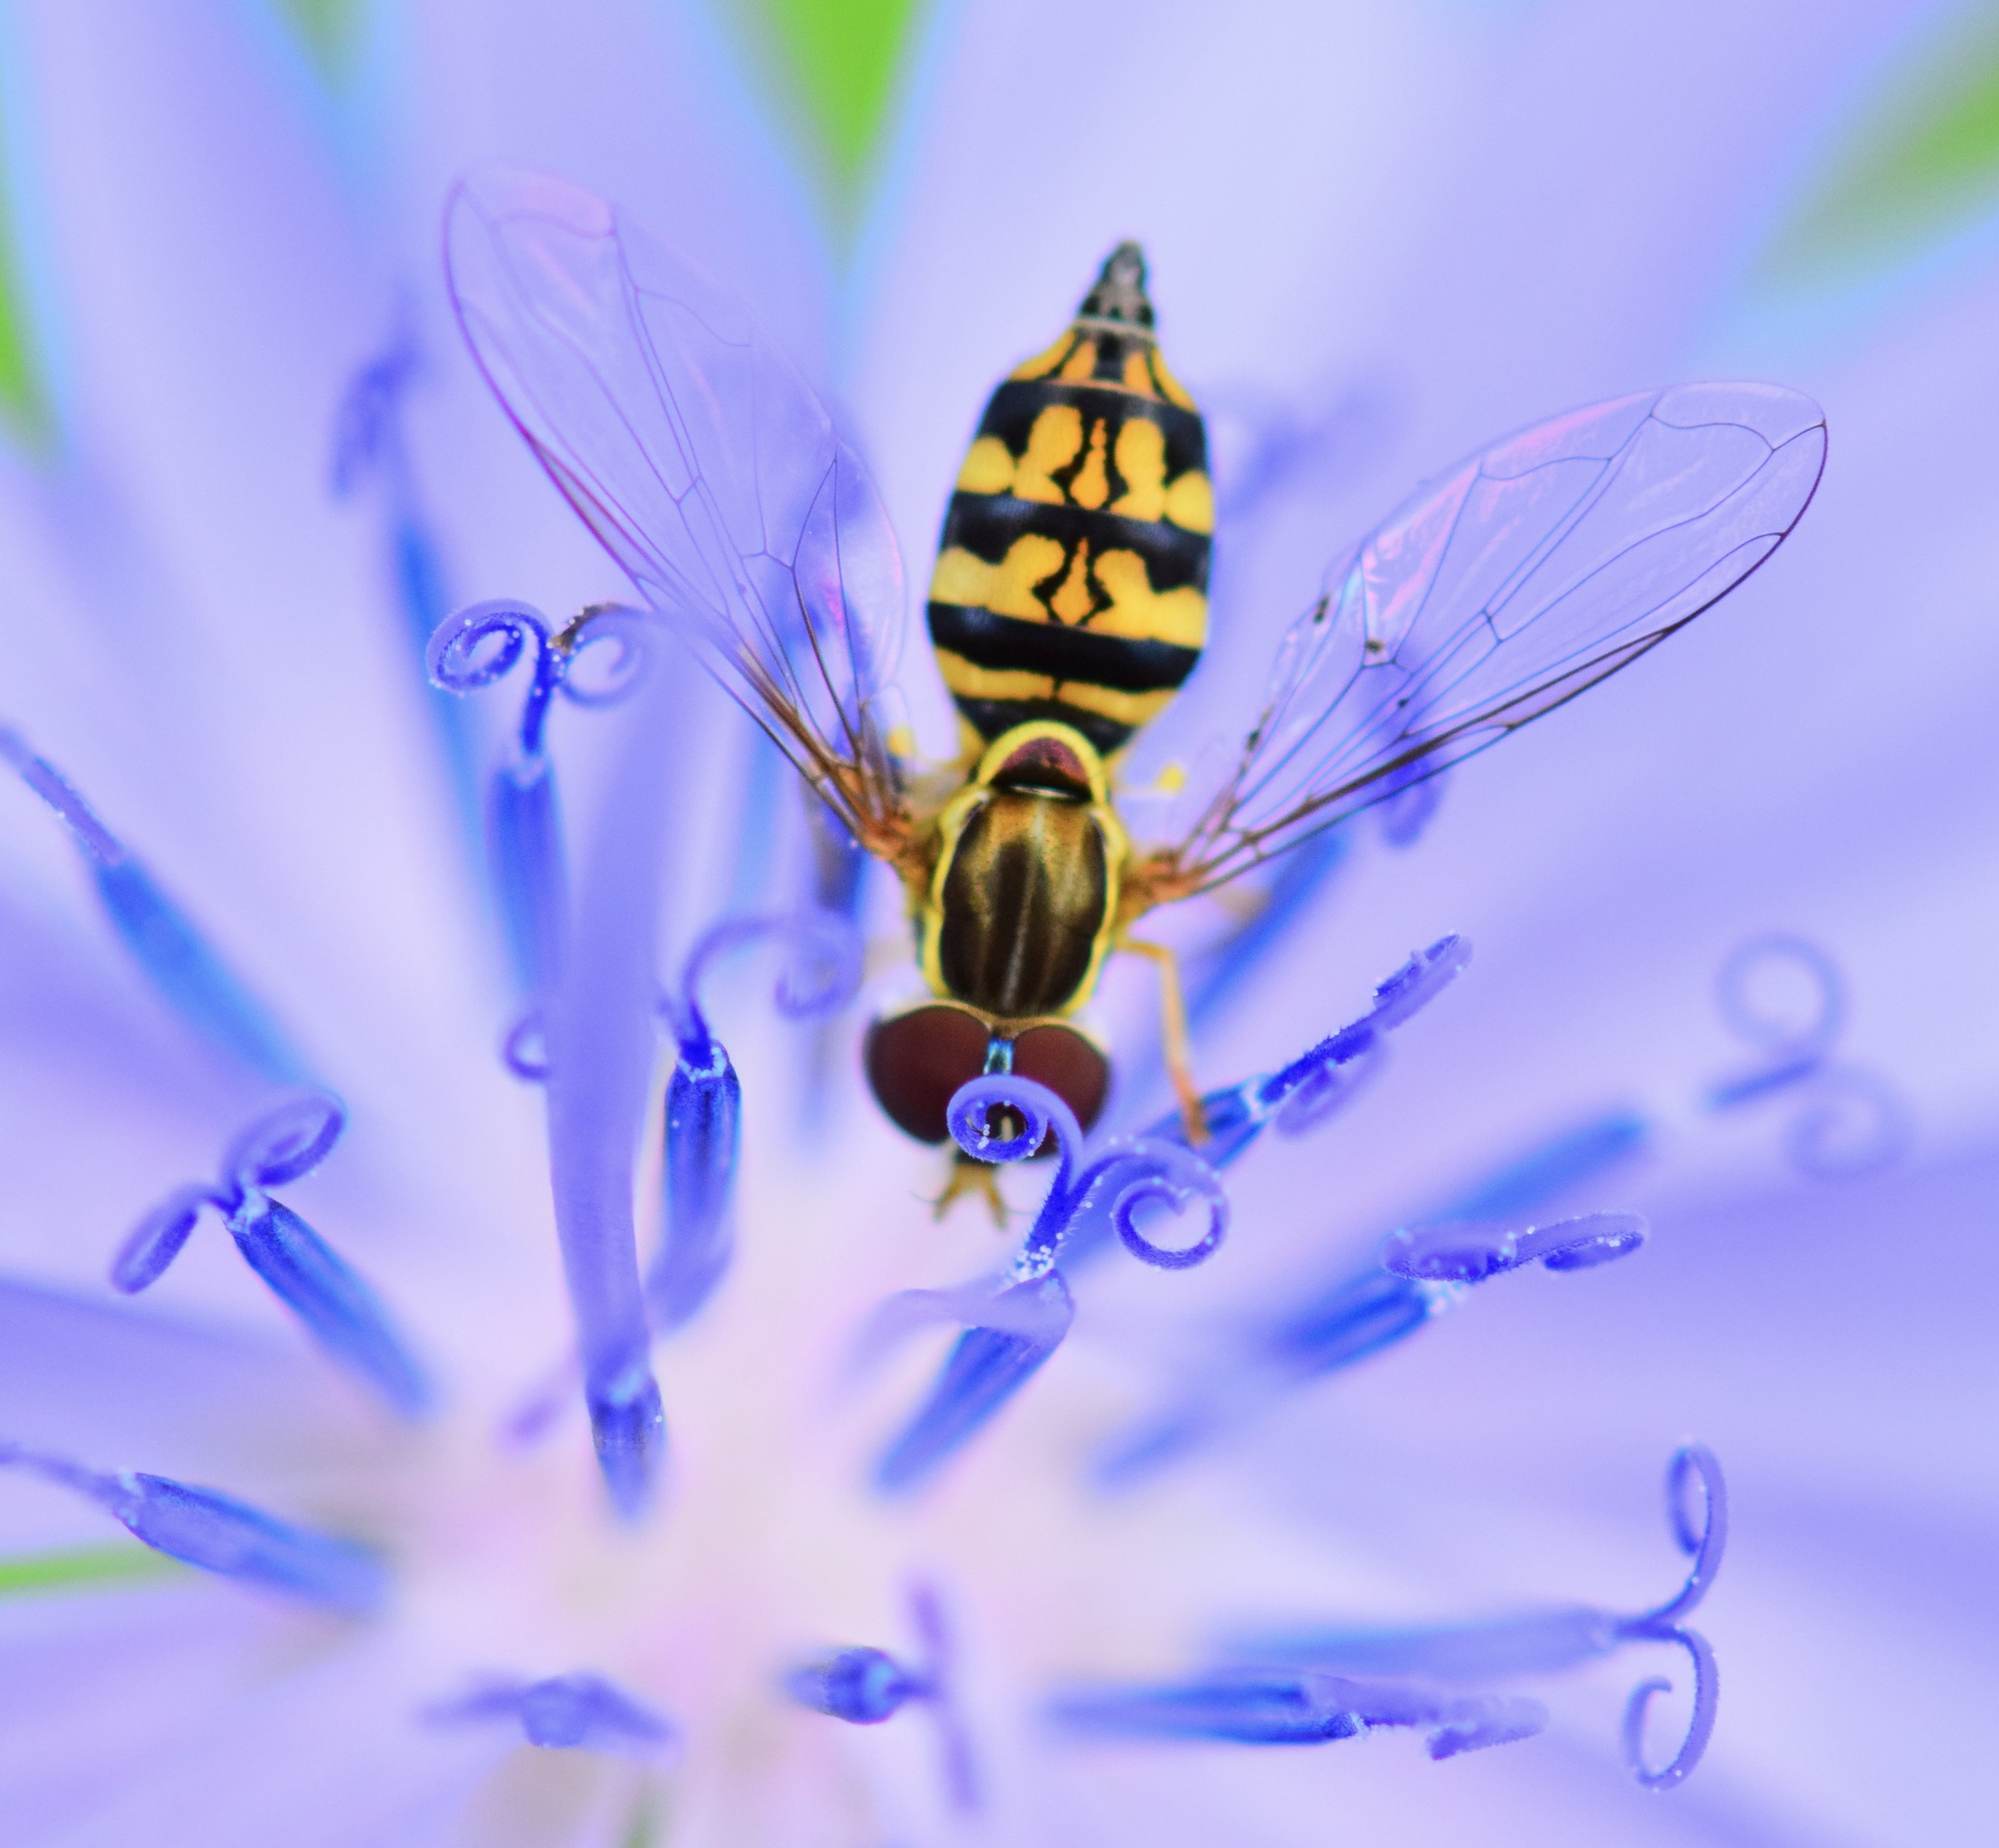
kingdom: Animalia
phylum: Arthropoda
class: Insecta
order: Diptera
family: Syrphidae
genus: Toxomerus
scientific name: Toxomerus geminatus
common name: Eastern calligrapher
